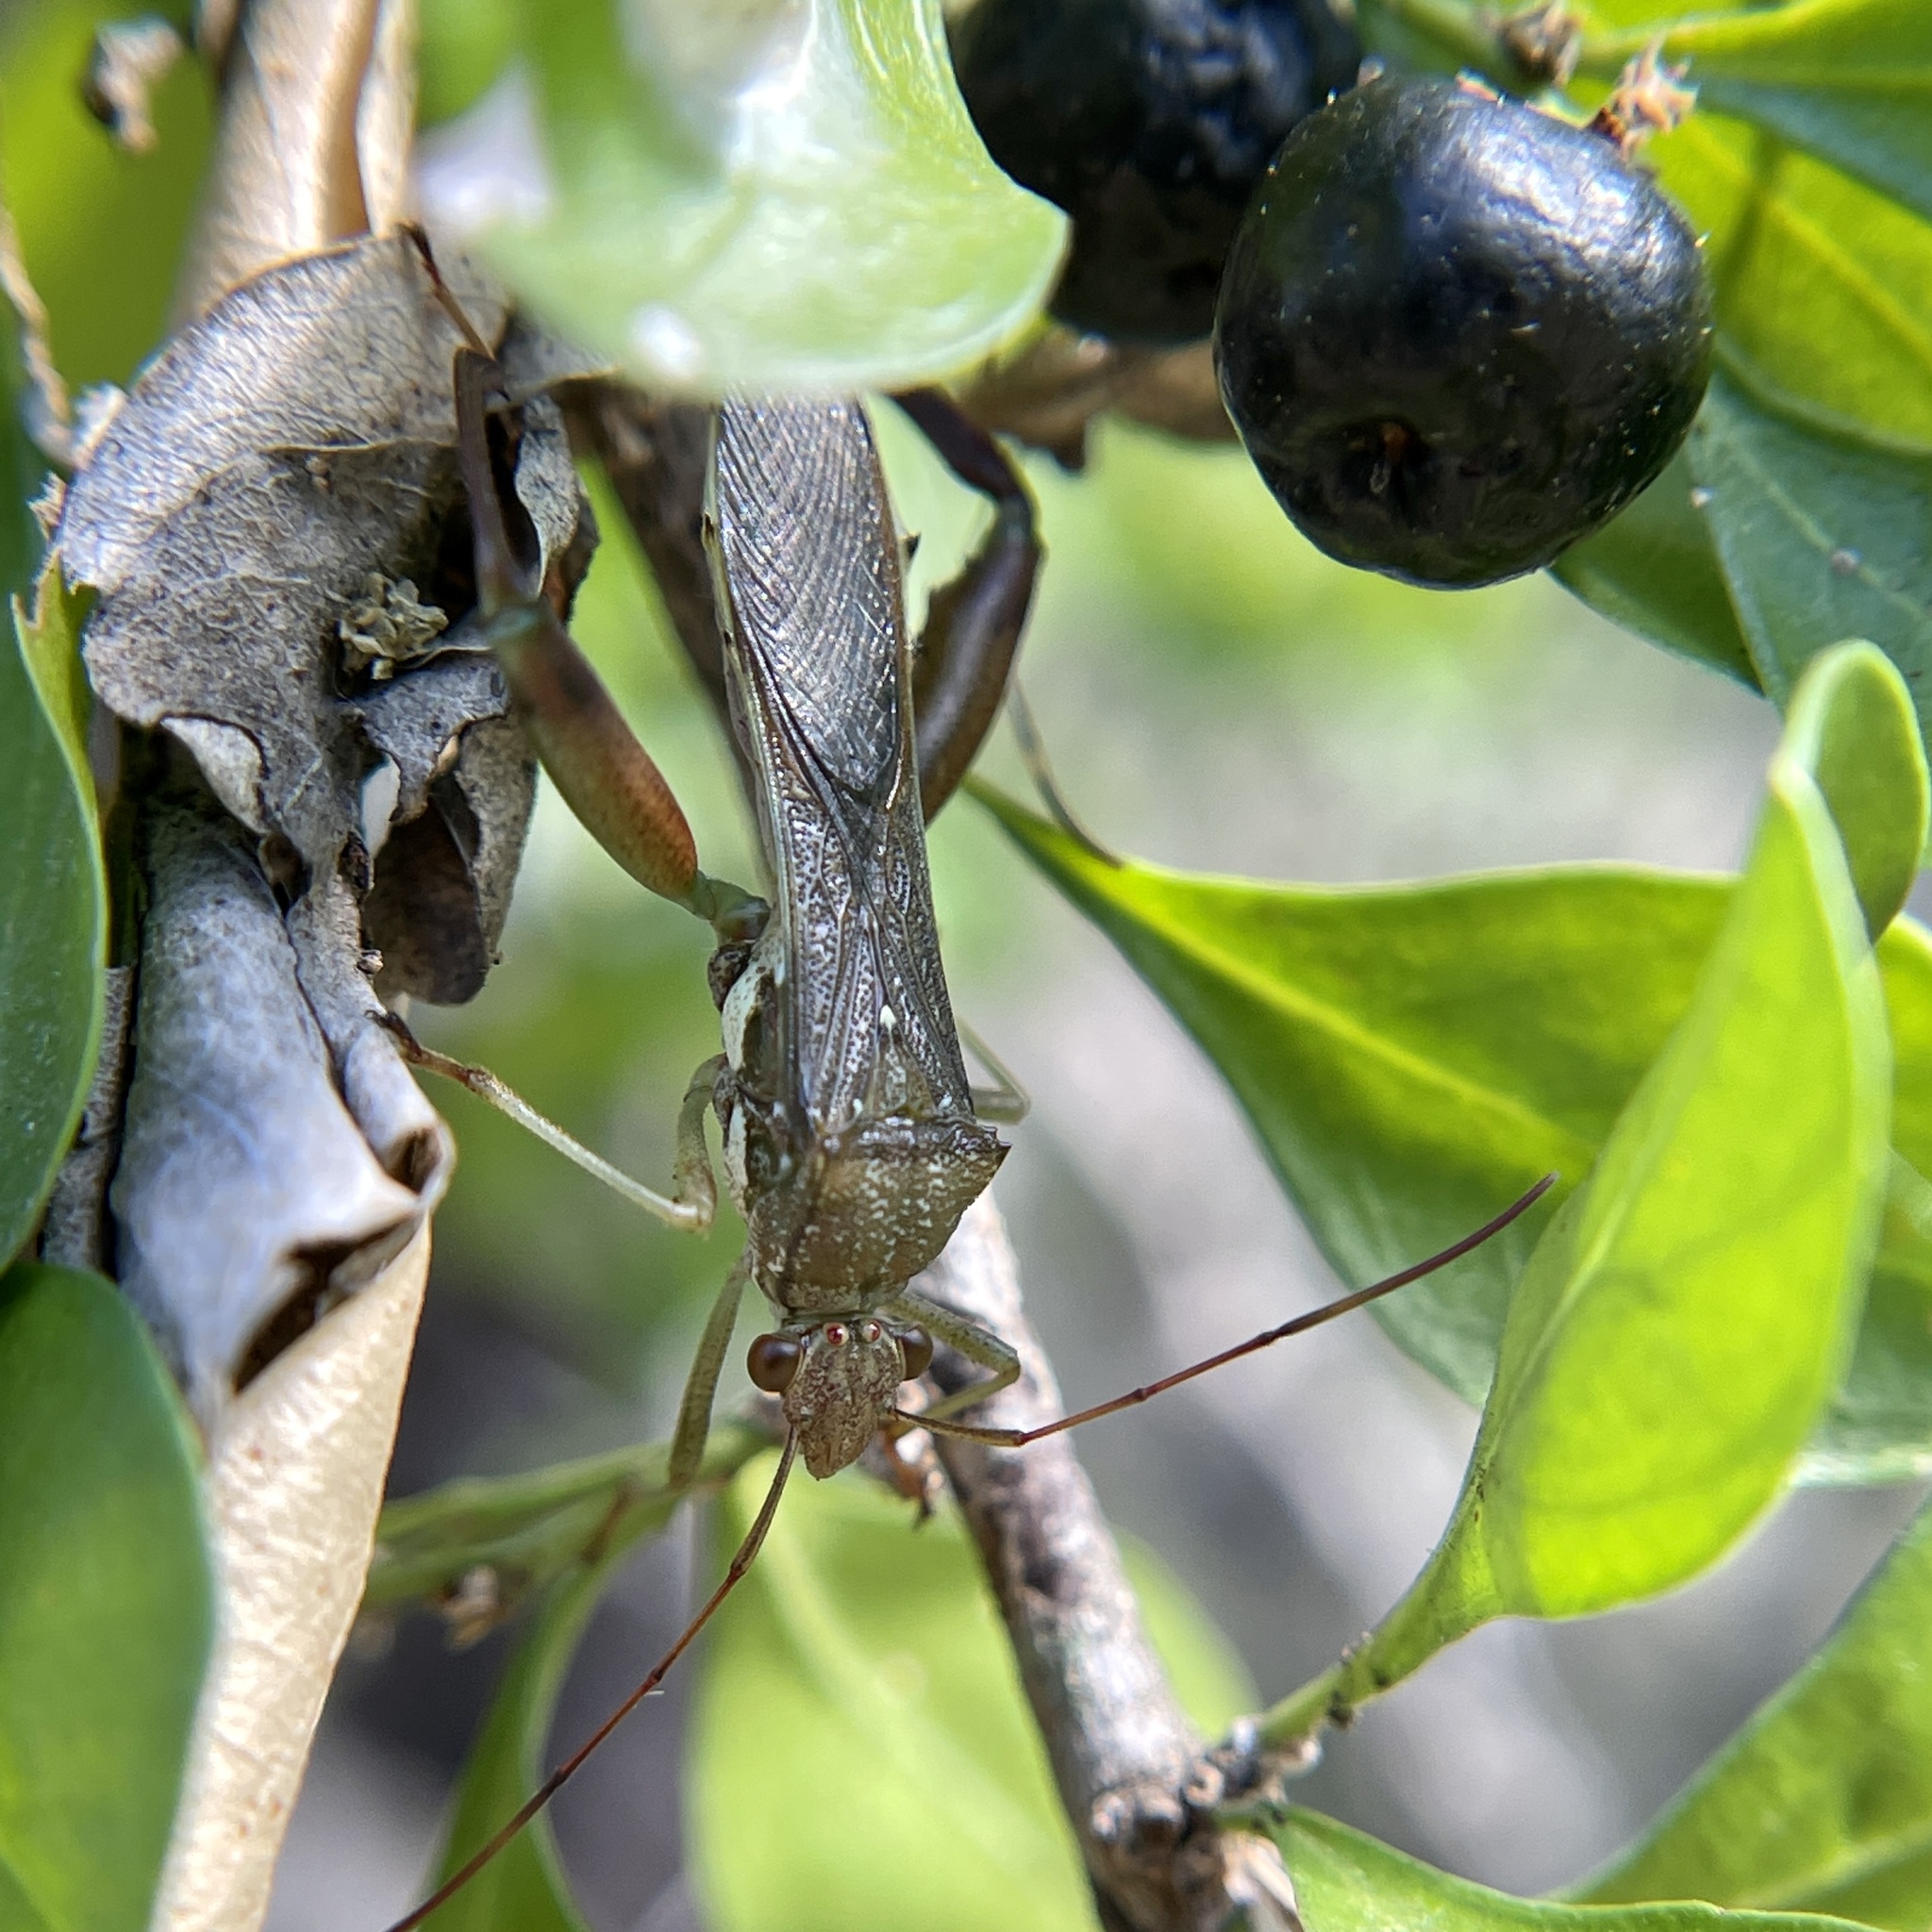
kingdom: Animalia
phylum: Arthropoda
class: Insecta
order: Hemiptera
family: Alydidae
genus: Hyalymenus
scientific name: Hyalymenus tarsatus
